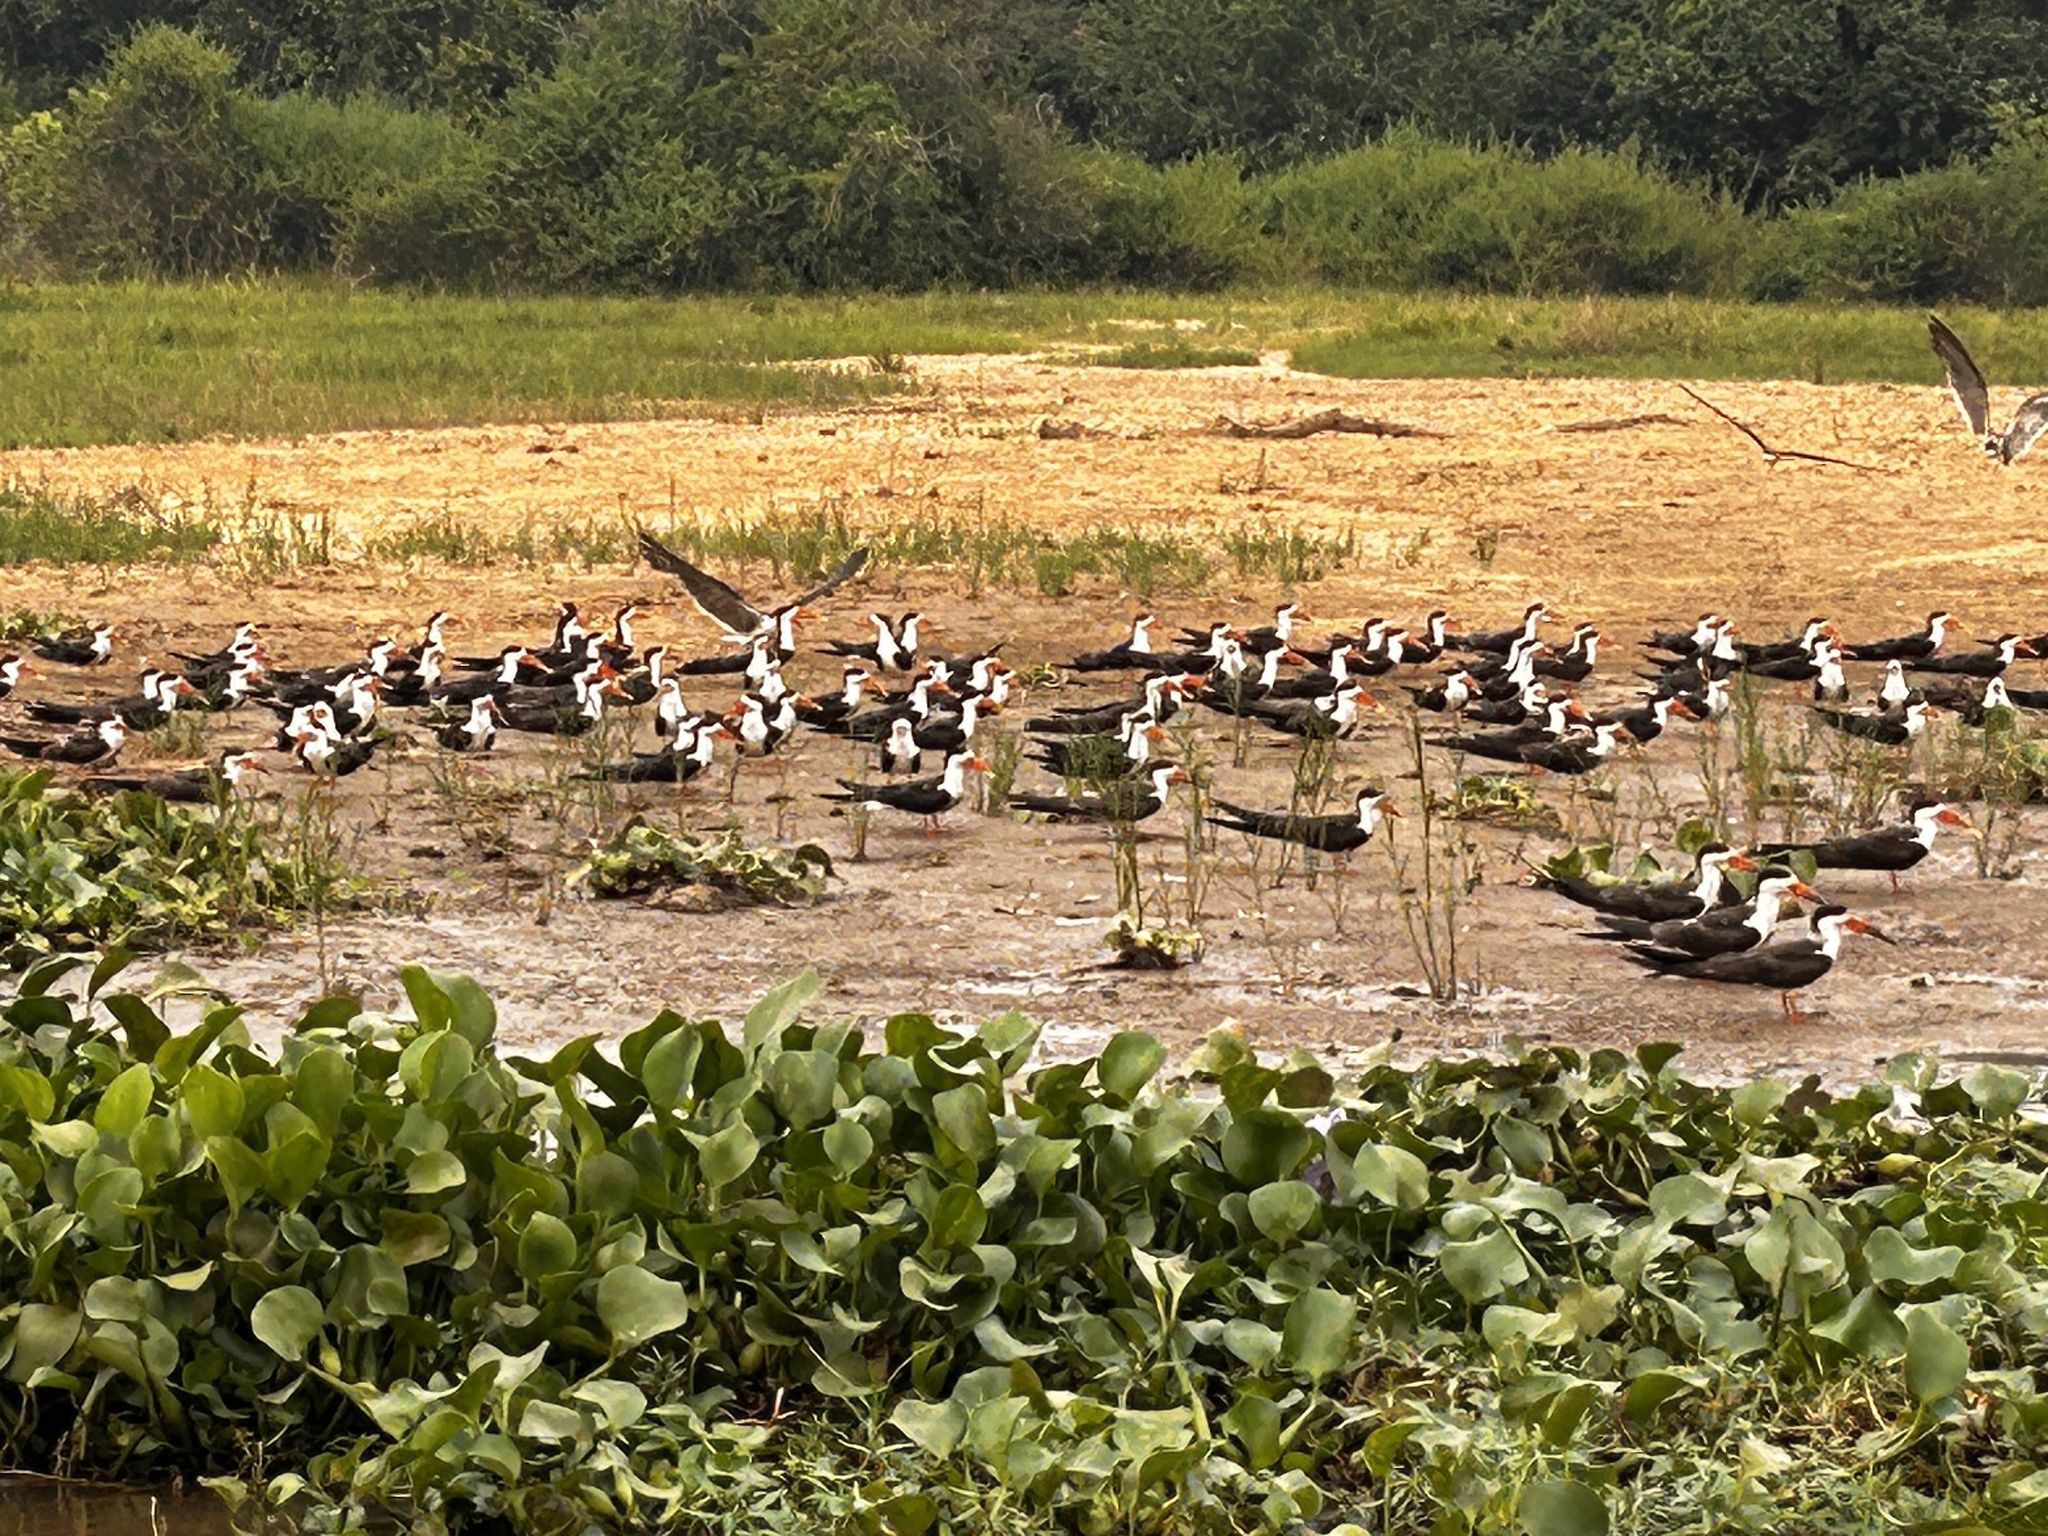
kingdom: Animalia
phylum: Chordata
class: Aves
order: Charadriiformes
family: Laridae
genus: Rynchops
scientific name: Rynchops flavirostris
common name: African skimmer
